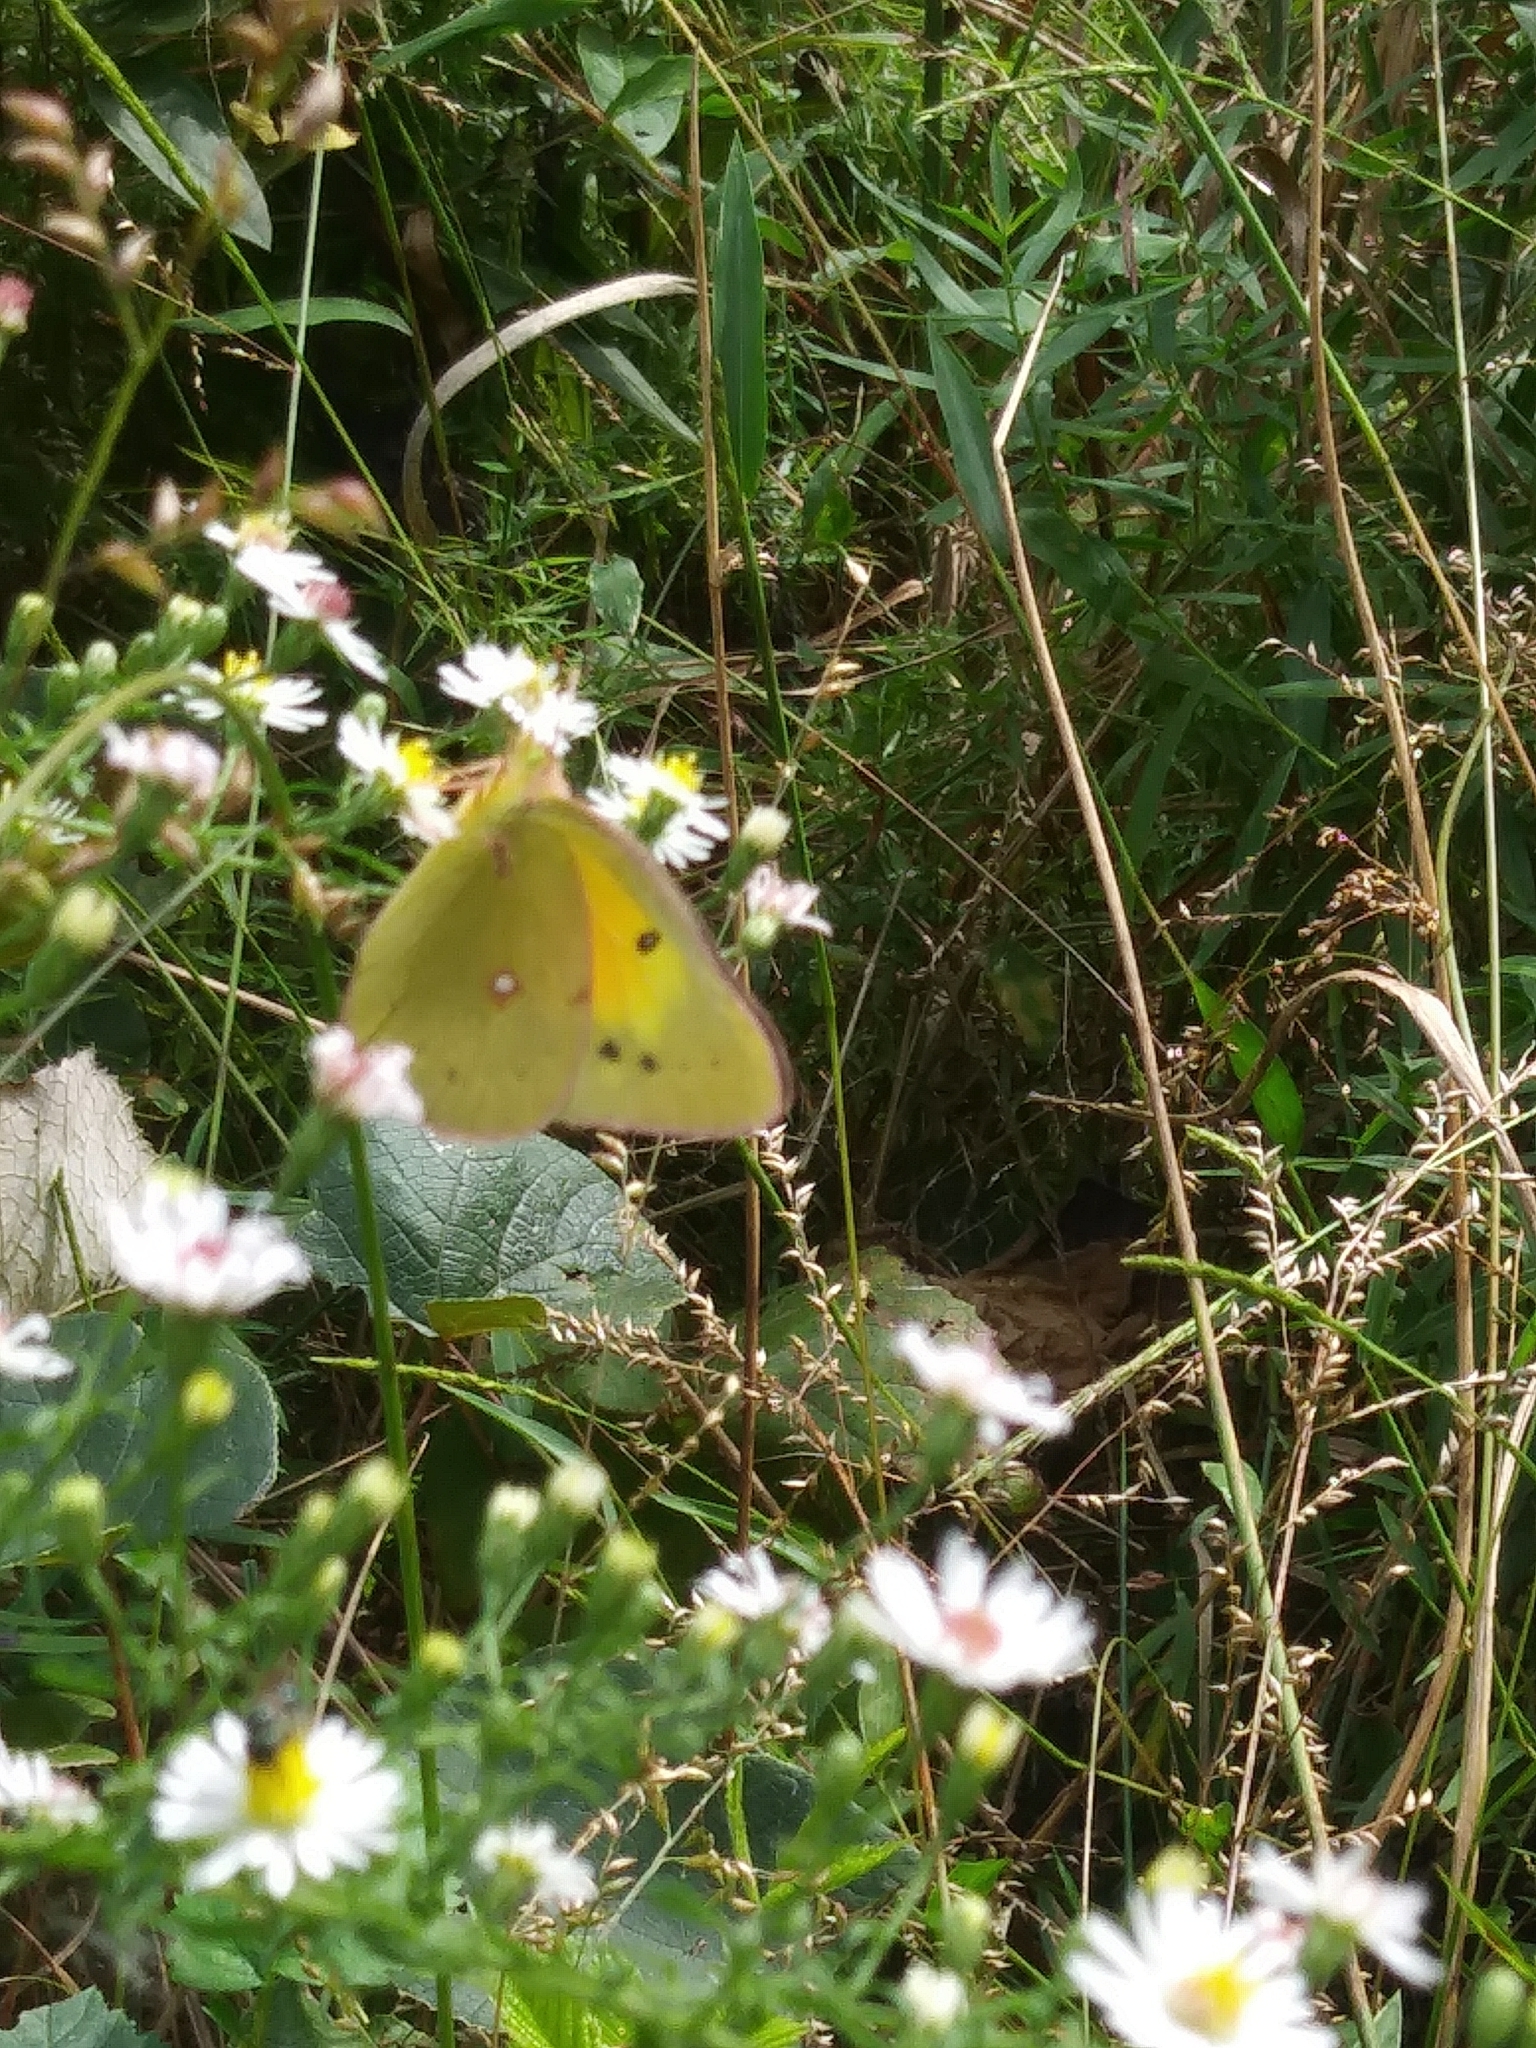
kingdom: Animalia
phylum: Arthropoda
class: Insecta
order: Lepidoptera
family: Pieridae
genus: Colias
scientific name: Colias eurytheme
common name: Alfalfa butterfly
